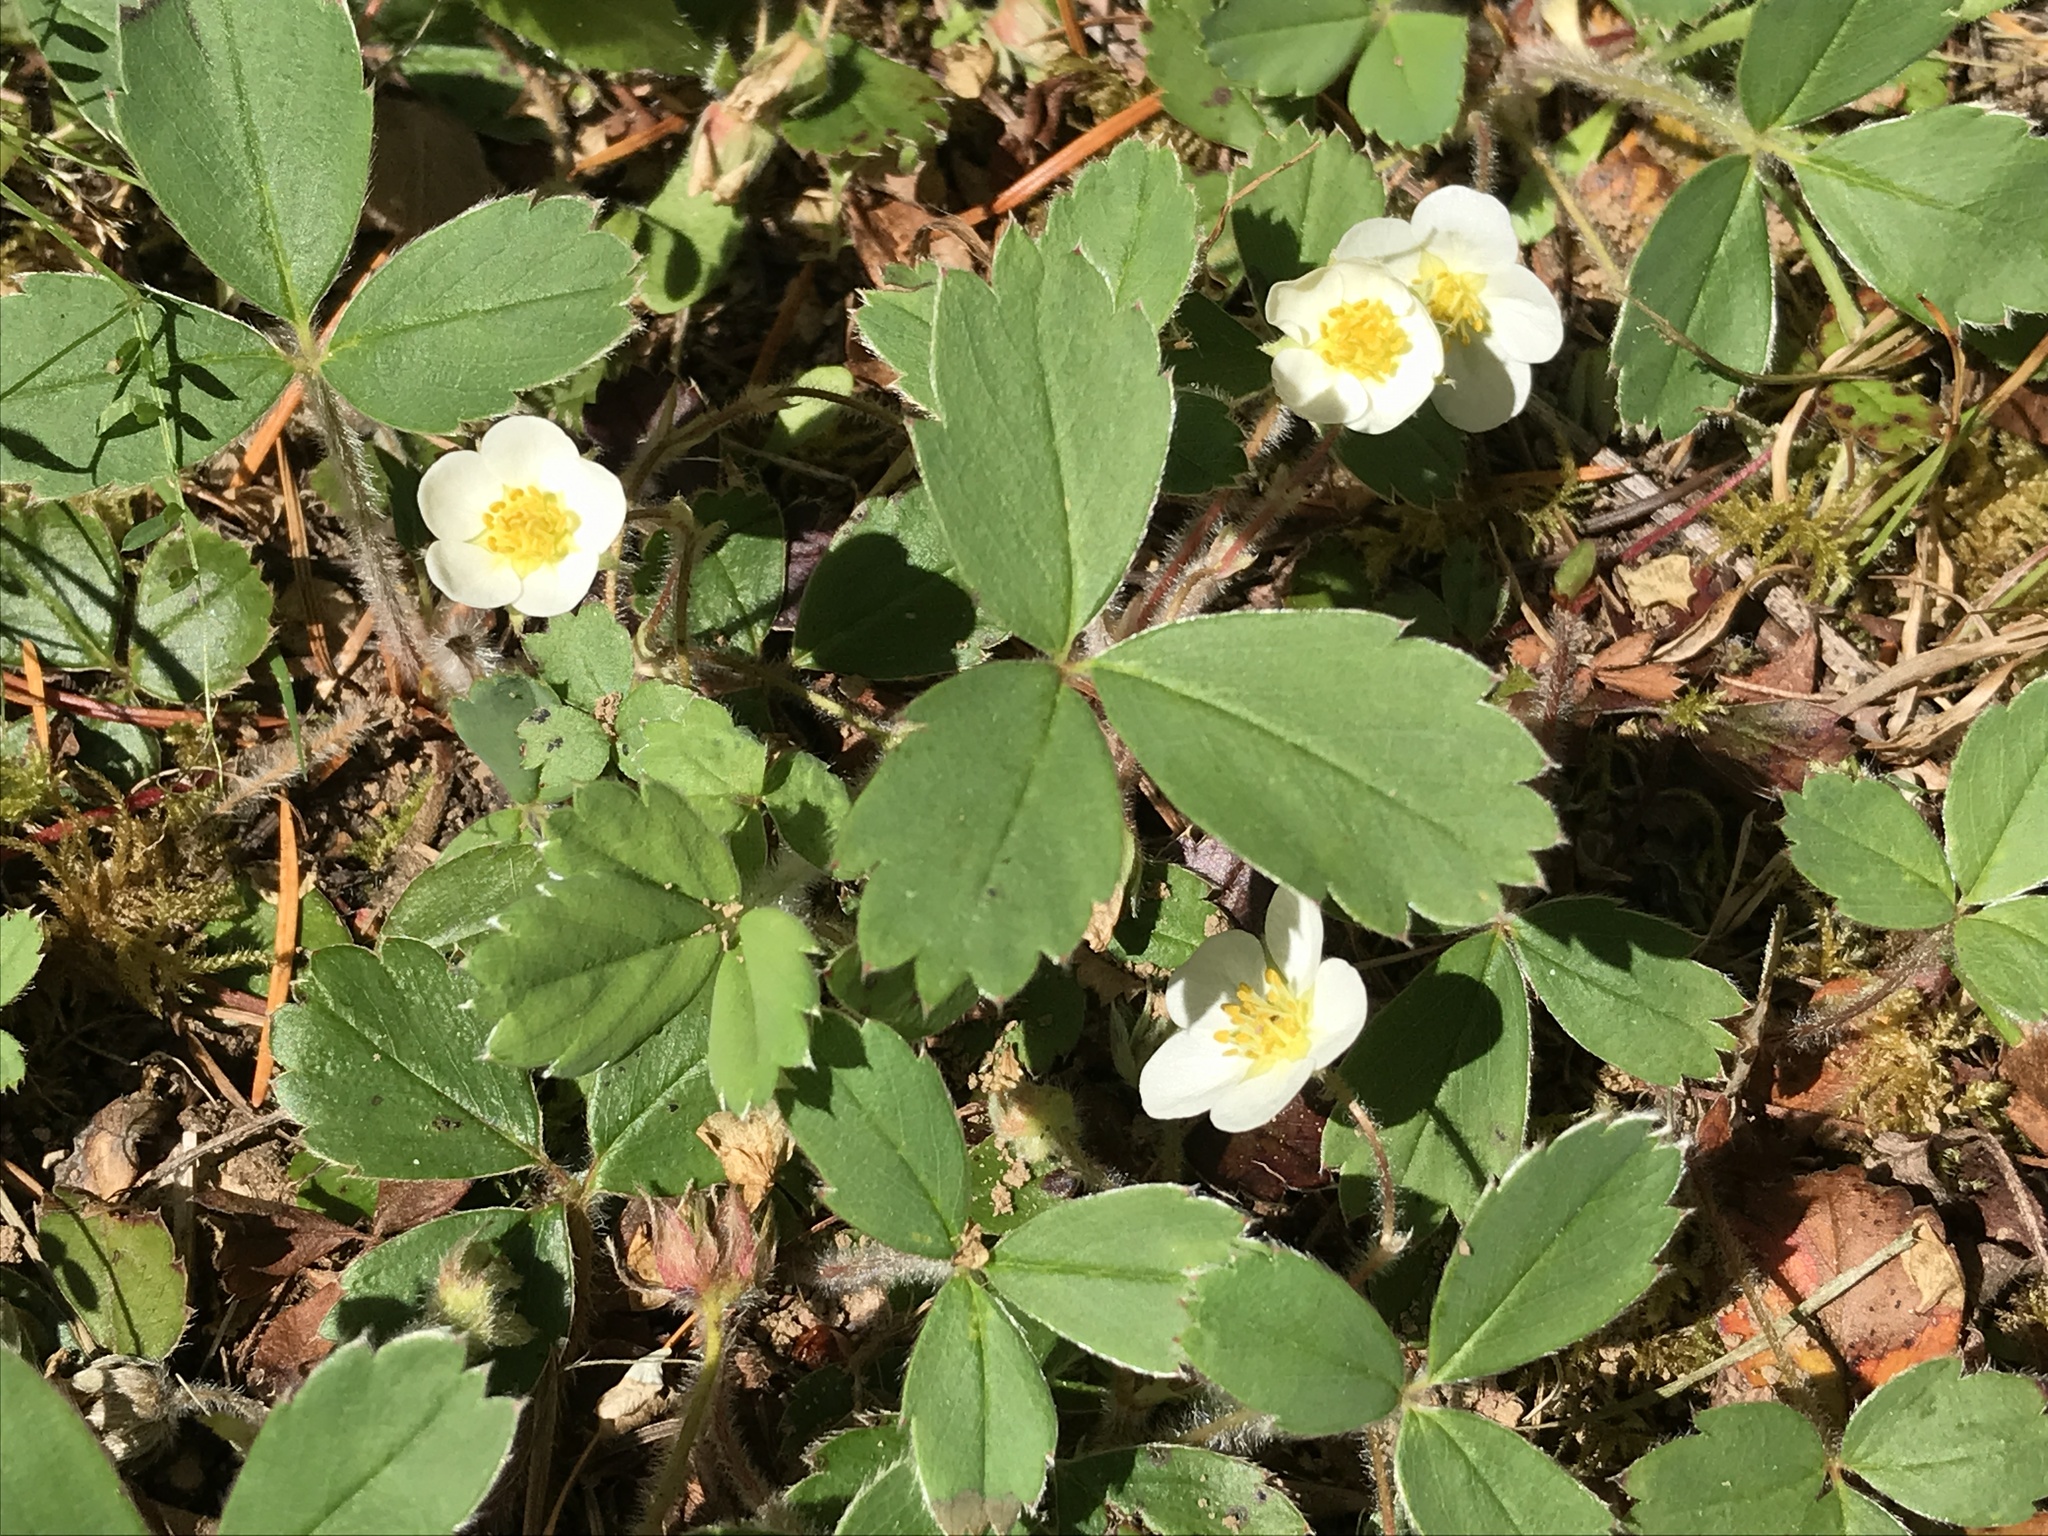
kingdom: Plantae
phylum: Tracheophyta
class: Magnoliopsida
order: Rosales
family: Rosaceae
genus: Fragaria
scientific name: Fragaria ananassa
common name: Garden strawberry
